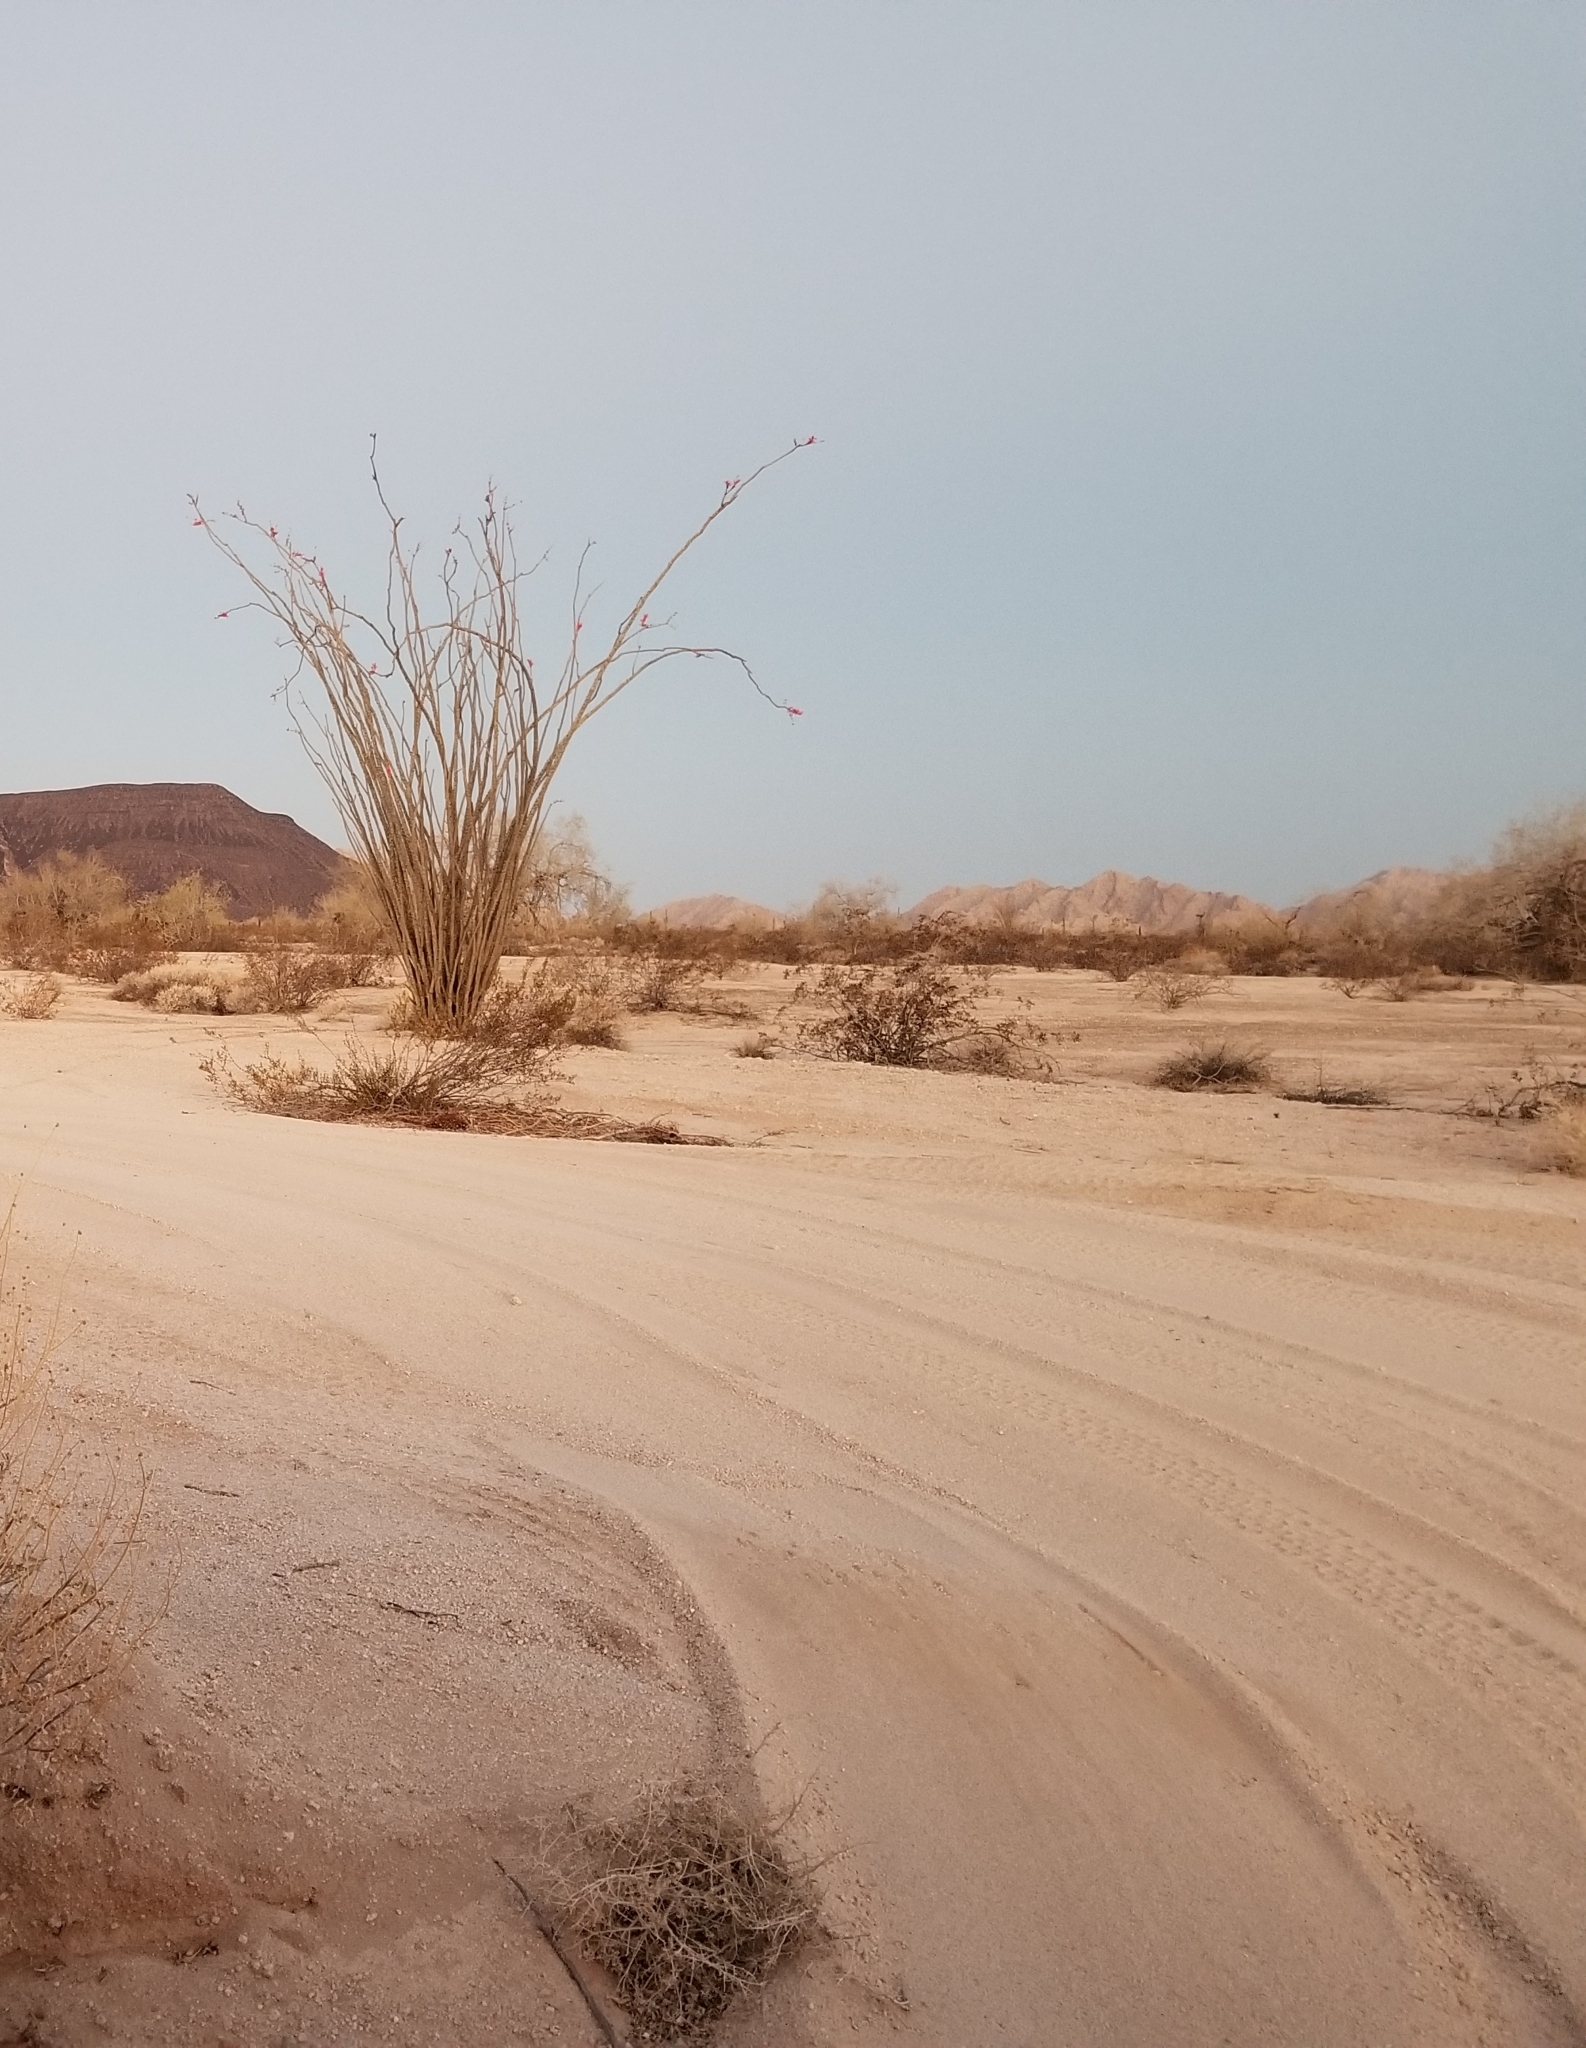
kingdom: Plantae
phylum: Tracheophyta
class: Magnoliopsida
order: Ericales
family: Fouquieriaceae
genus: Fouquieria
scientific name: Fouquieria splendens
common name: Vine-cactus
